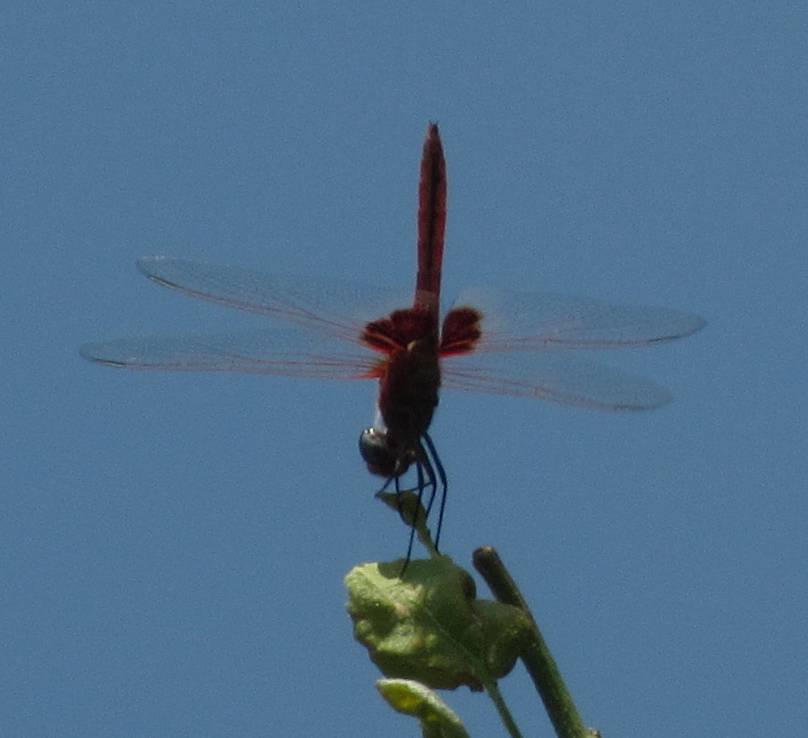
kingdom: Animalia
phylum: Arthropoda
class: Insecta
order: Odonata
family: Libellulidae
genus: Urothemis
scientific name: Urothemis assignata
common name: Red basker
